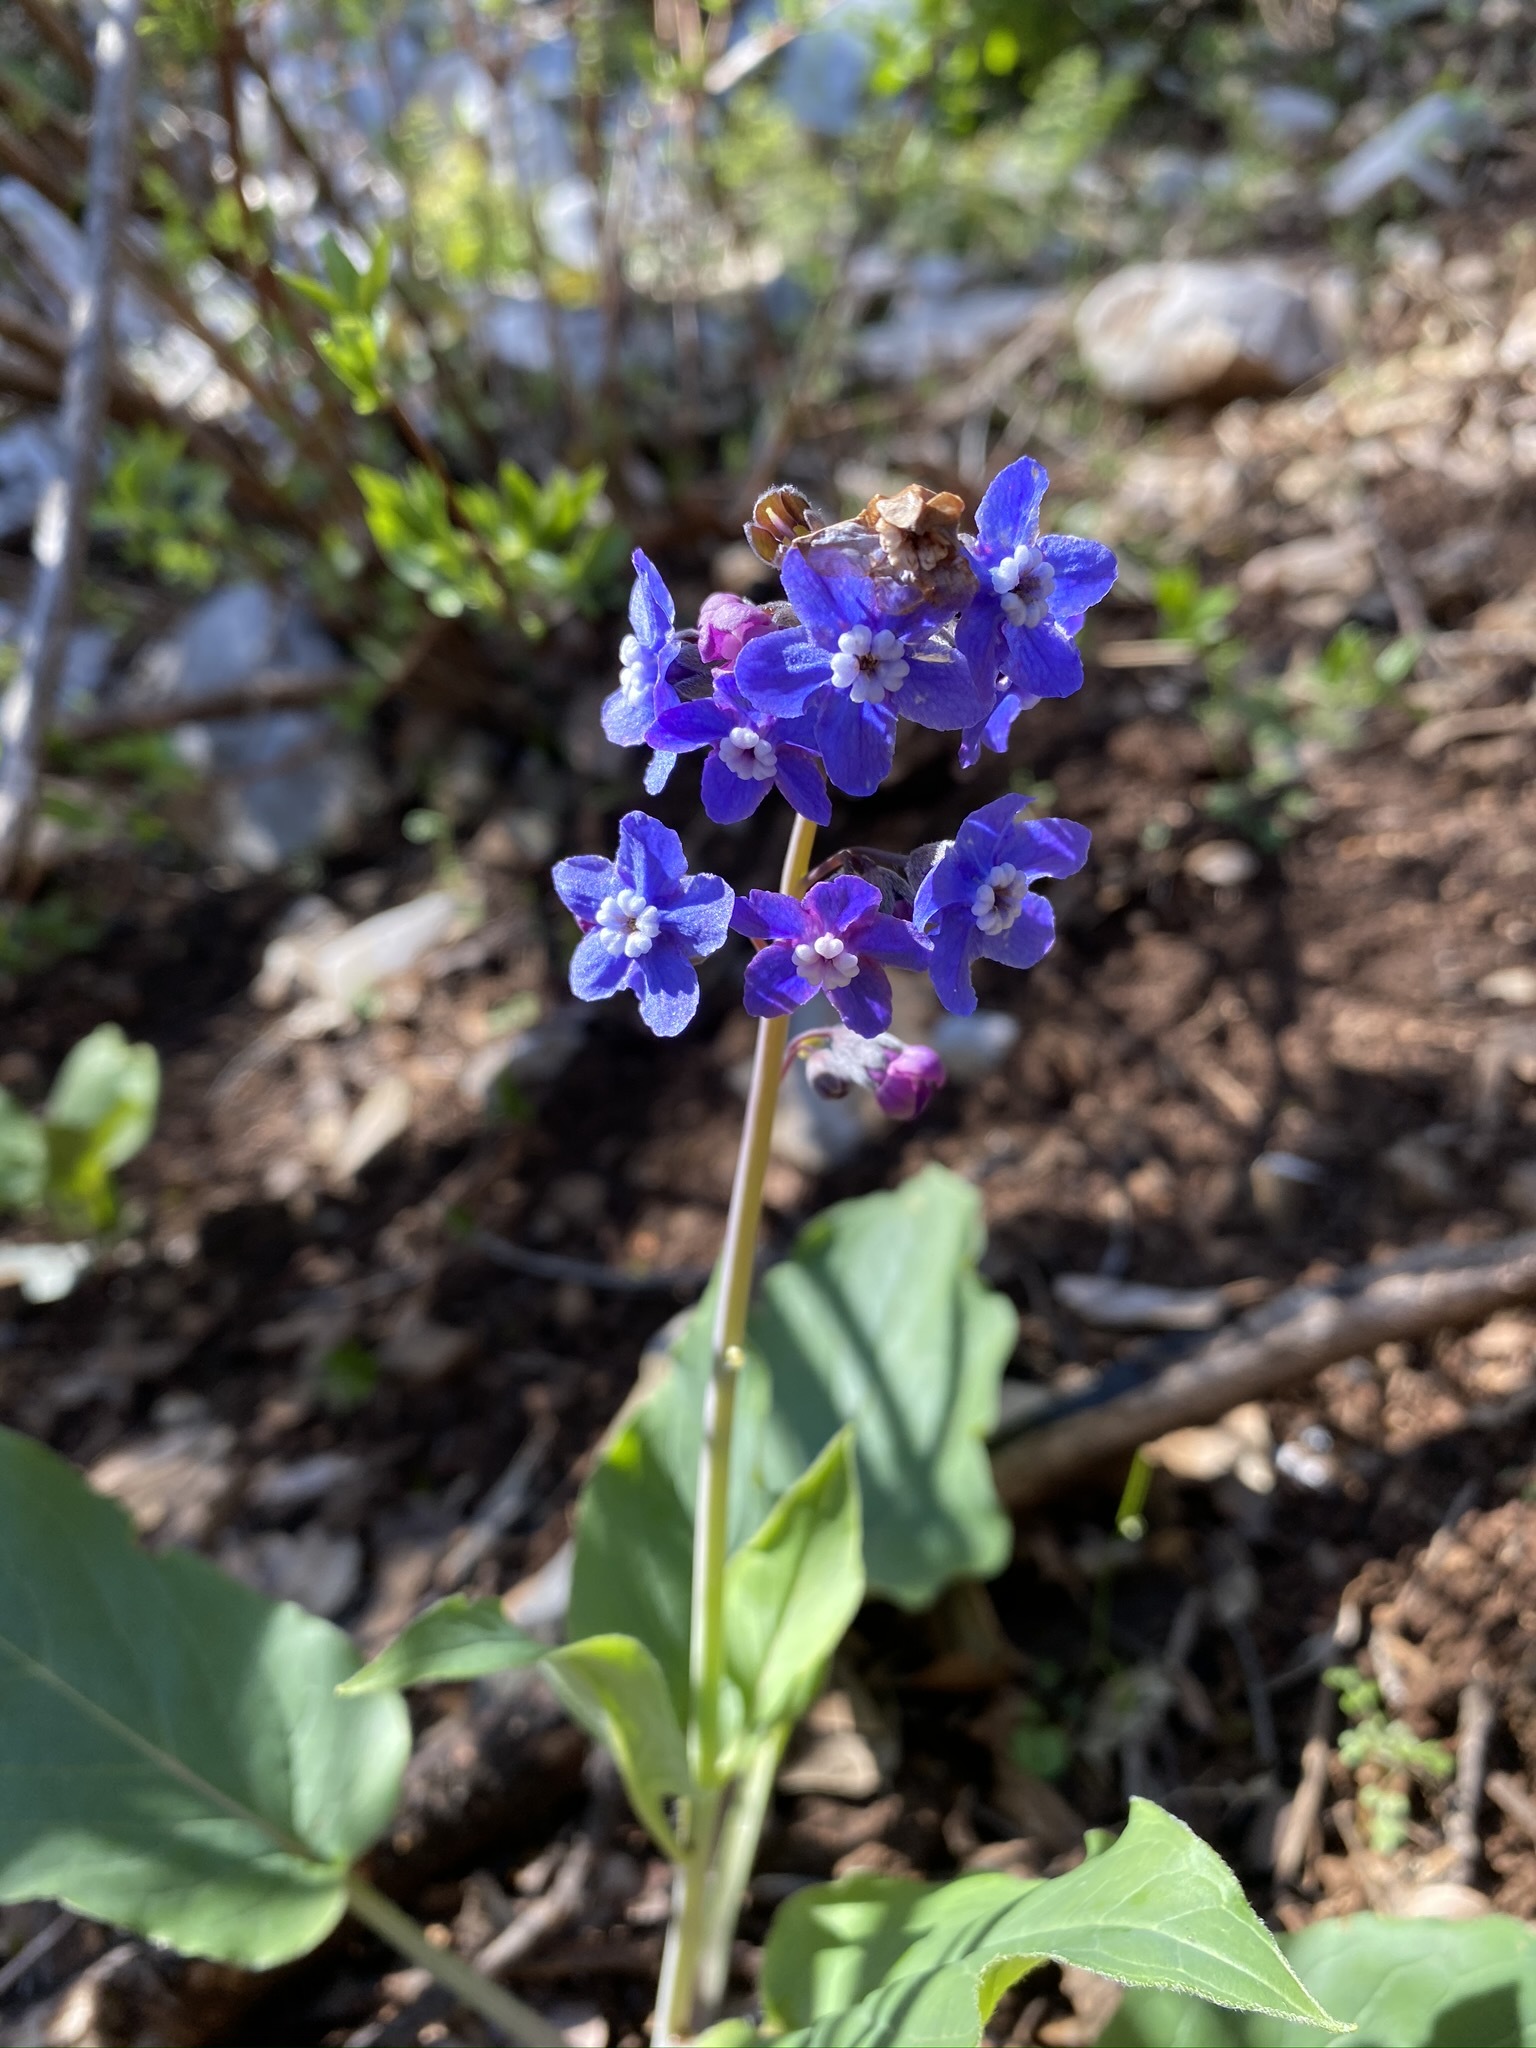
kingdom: Plantae
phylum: Tracheophyta
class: Magnoliopsida
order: Boraginales
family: Boraginaceae
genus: Adelinia
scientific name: Adelinia grande
